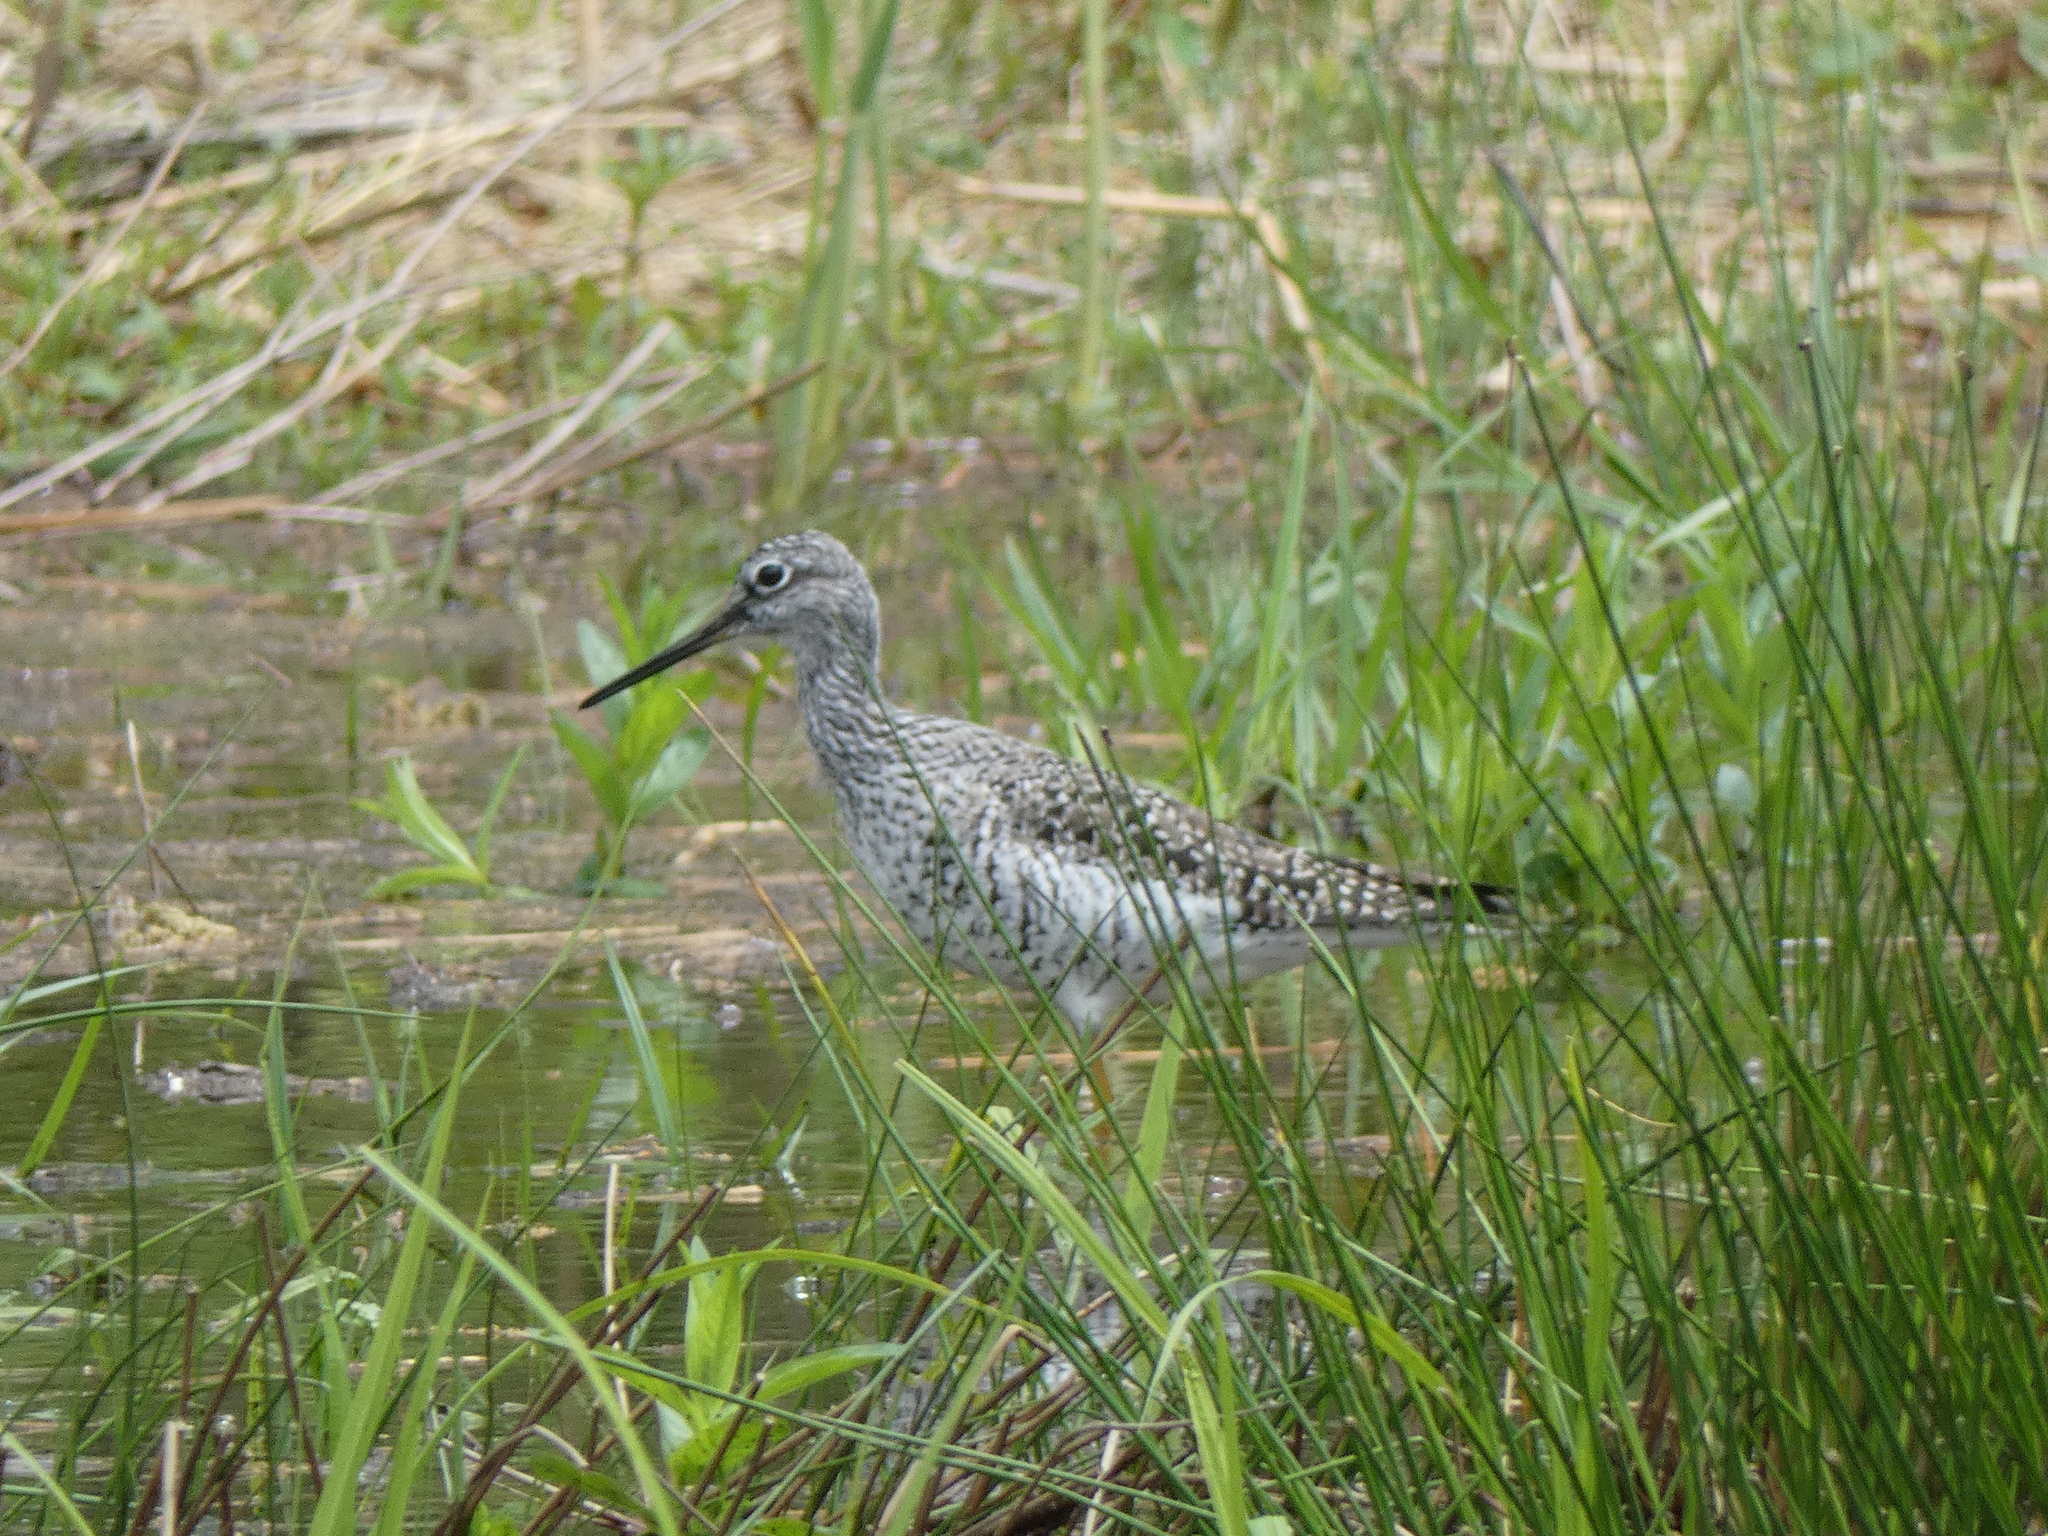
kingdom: Animalia
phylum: Chordata
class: Aves
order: Charadriiformes
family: Scolopacidae
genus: Tringa
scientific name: Tringa melanoleuca
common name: Greater yellowlegs
